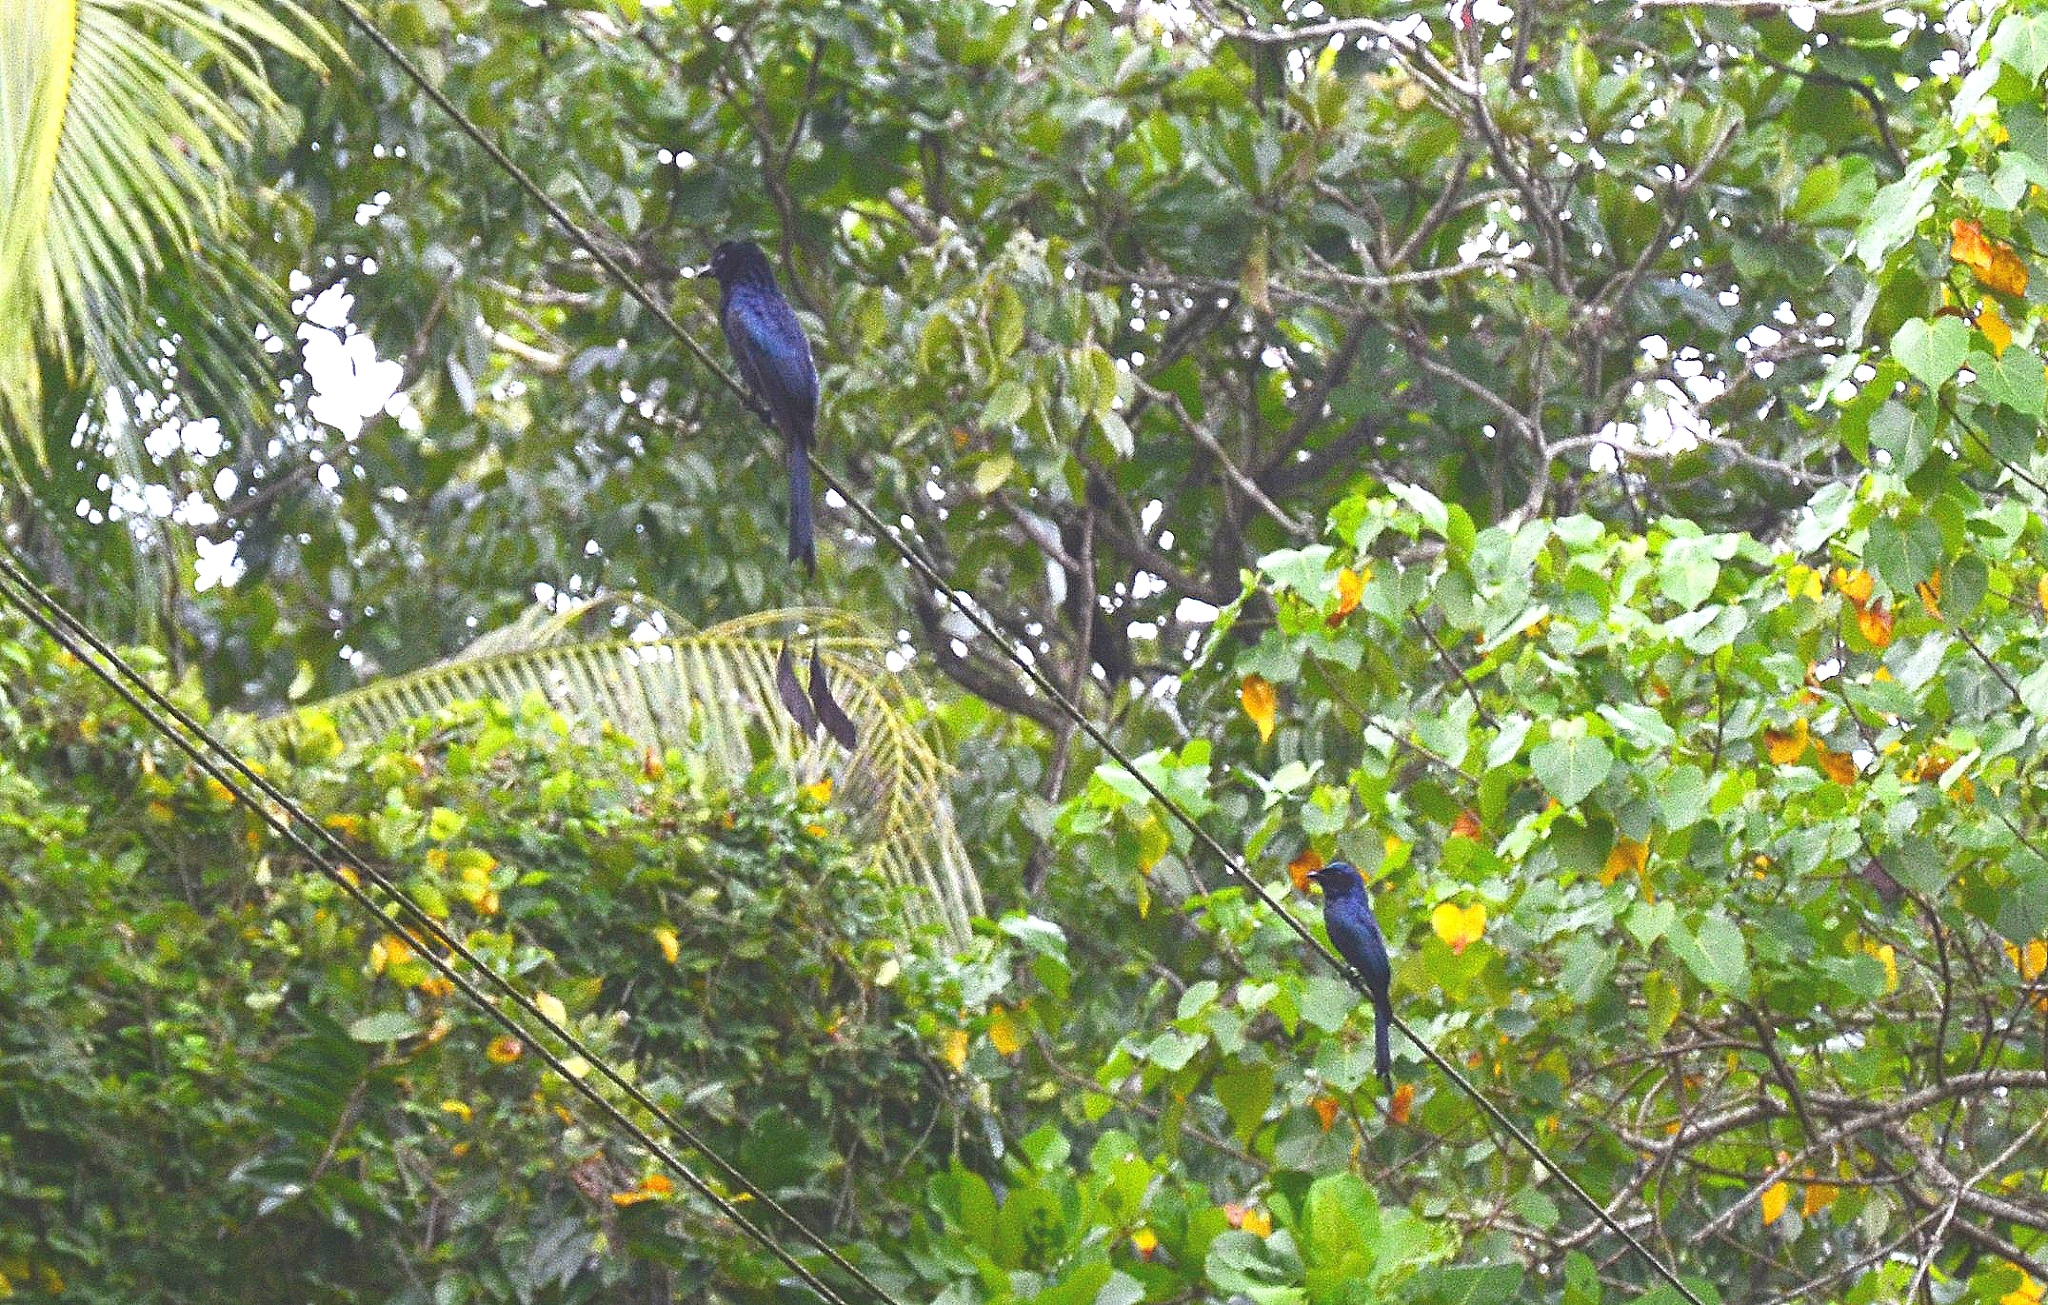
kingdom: Animalia
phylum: Chordata
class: Aves
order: Passeriformes
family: Dicruridae
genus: Dicrurus
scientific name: Dicrurus paradiseus
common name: Greater racket-tailed drongo
